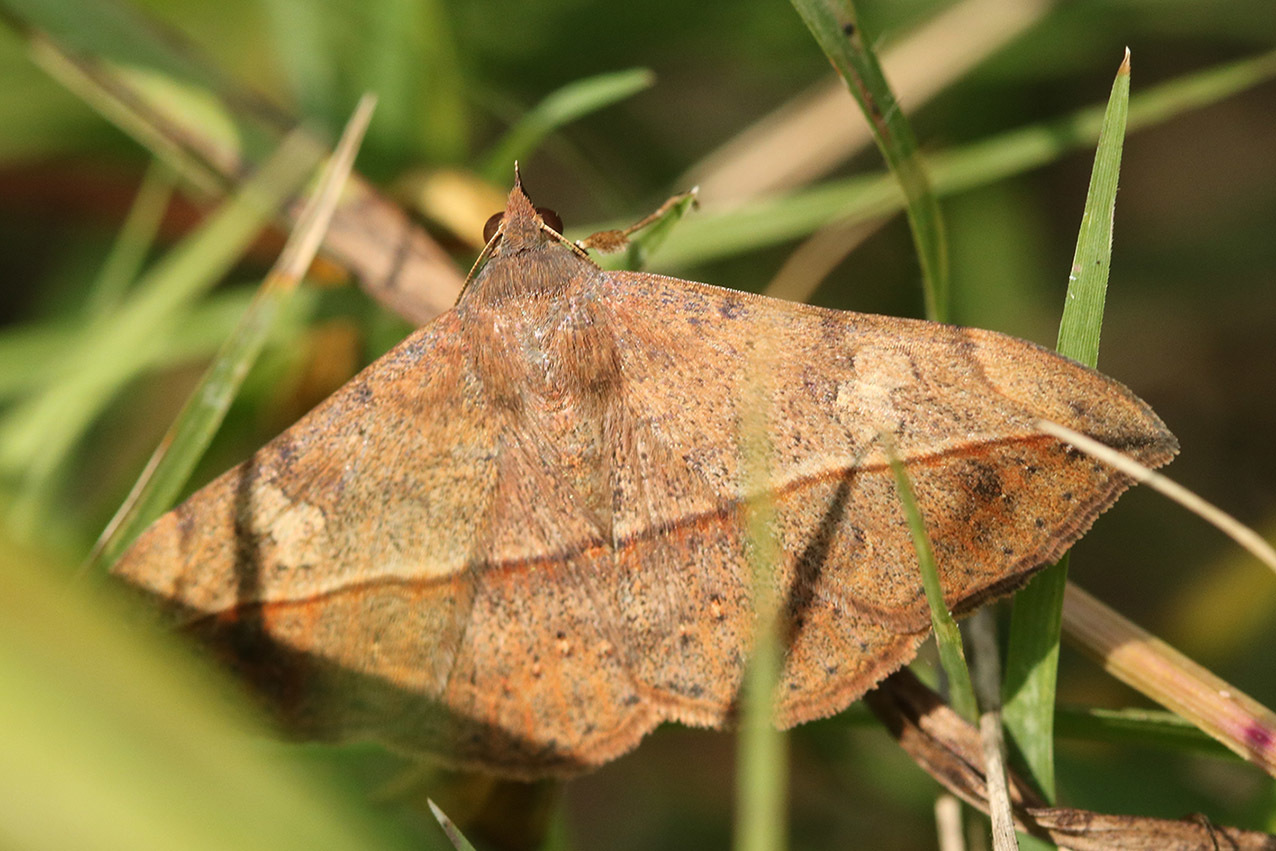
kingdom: Animalia
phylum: Arthropoda
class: Insecta
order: Lepidoptera
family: Erebidae
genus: Anticarsia
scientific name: Anticarsia gemmatalis
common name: Cutworm moth
